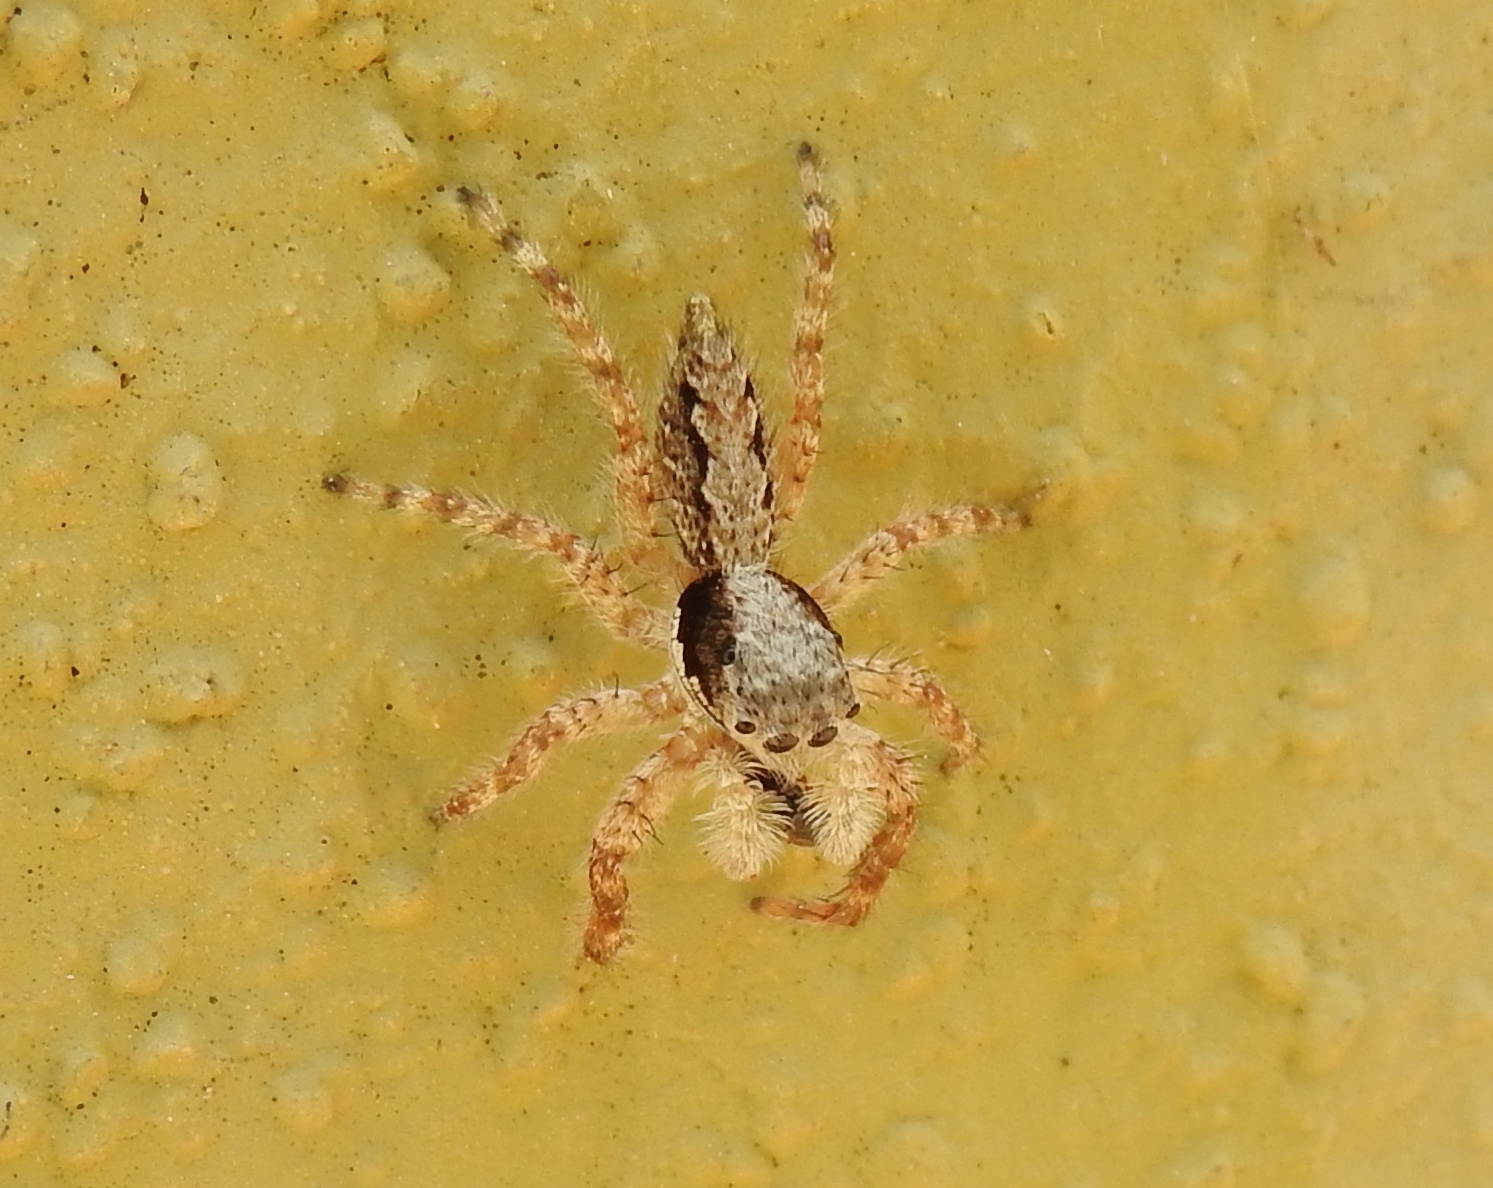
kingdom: Animalia
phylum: Arthropoda
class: Arachnida
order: Araneae
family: Salticidae
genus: Balmaceda
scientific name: Balmaceda
